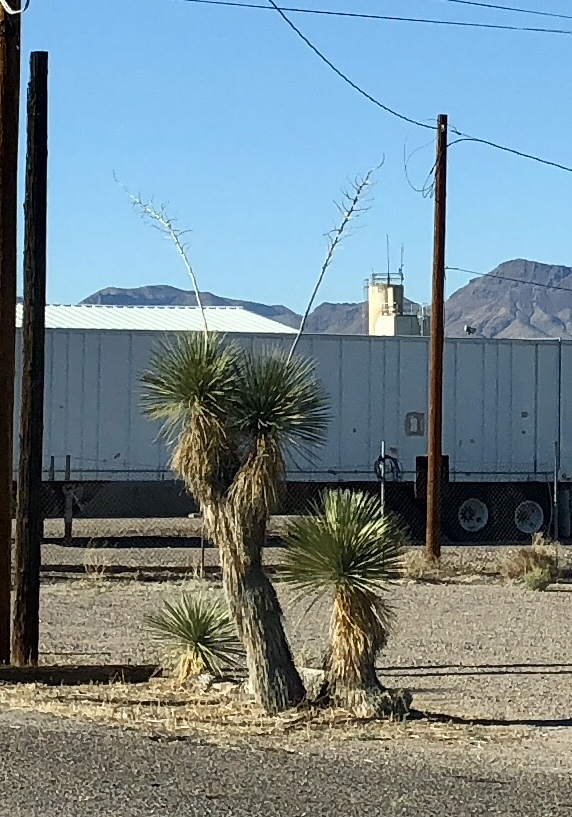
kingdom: Plantae
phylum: Tracheophyta
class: Liliopsida
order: Asparagales
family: Asparagaceae
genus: Yucca
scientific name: Yucca elata
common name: Palmella
